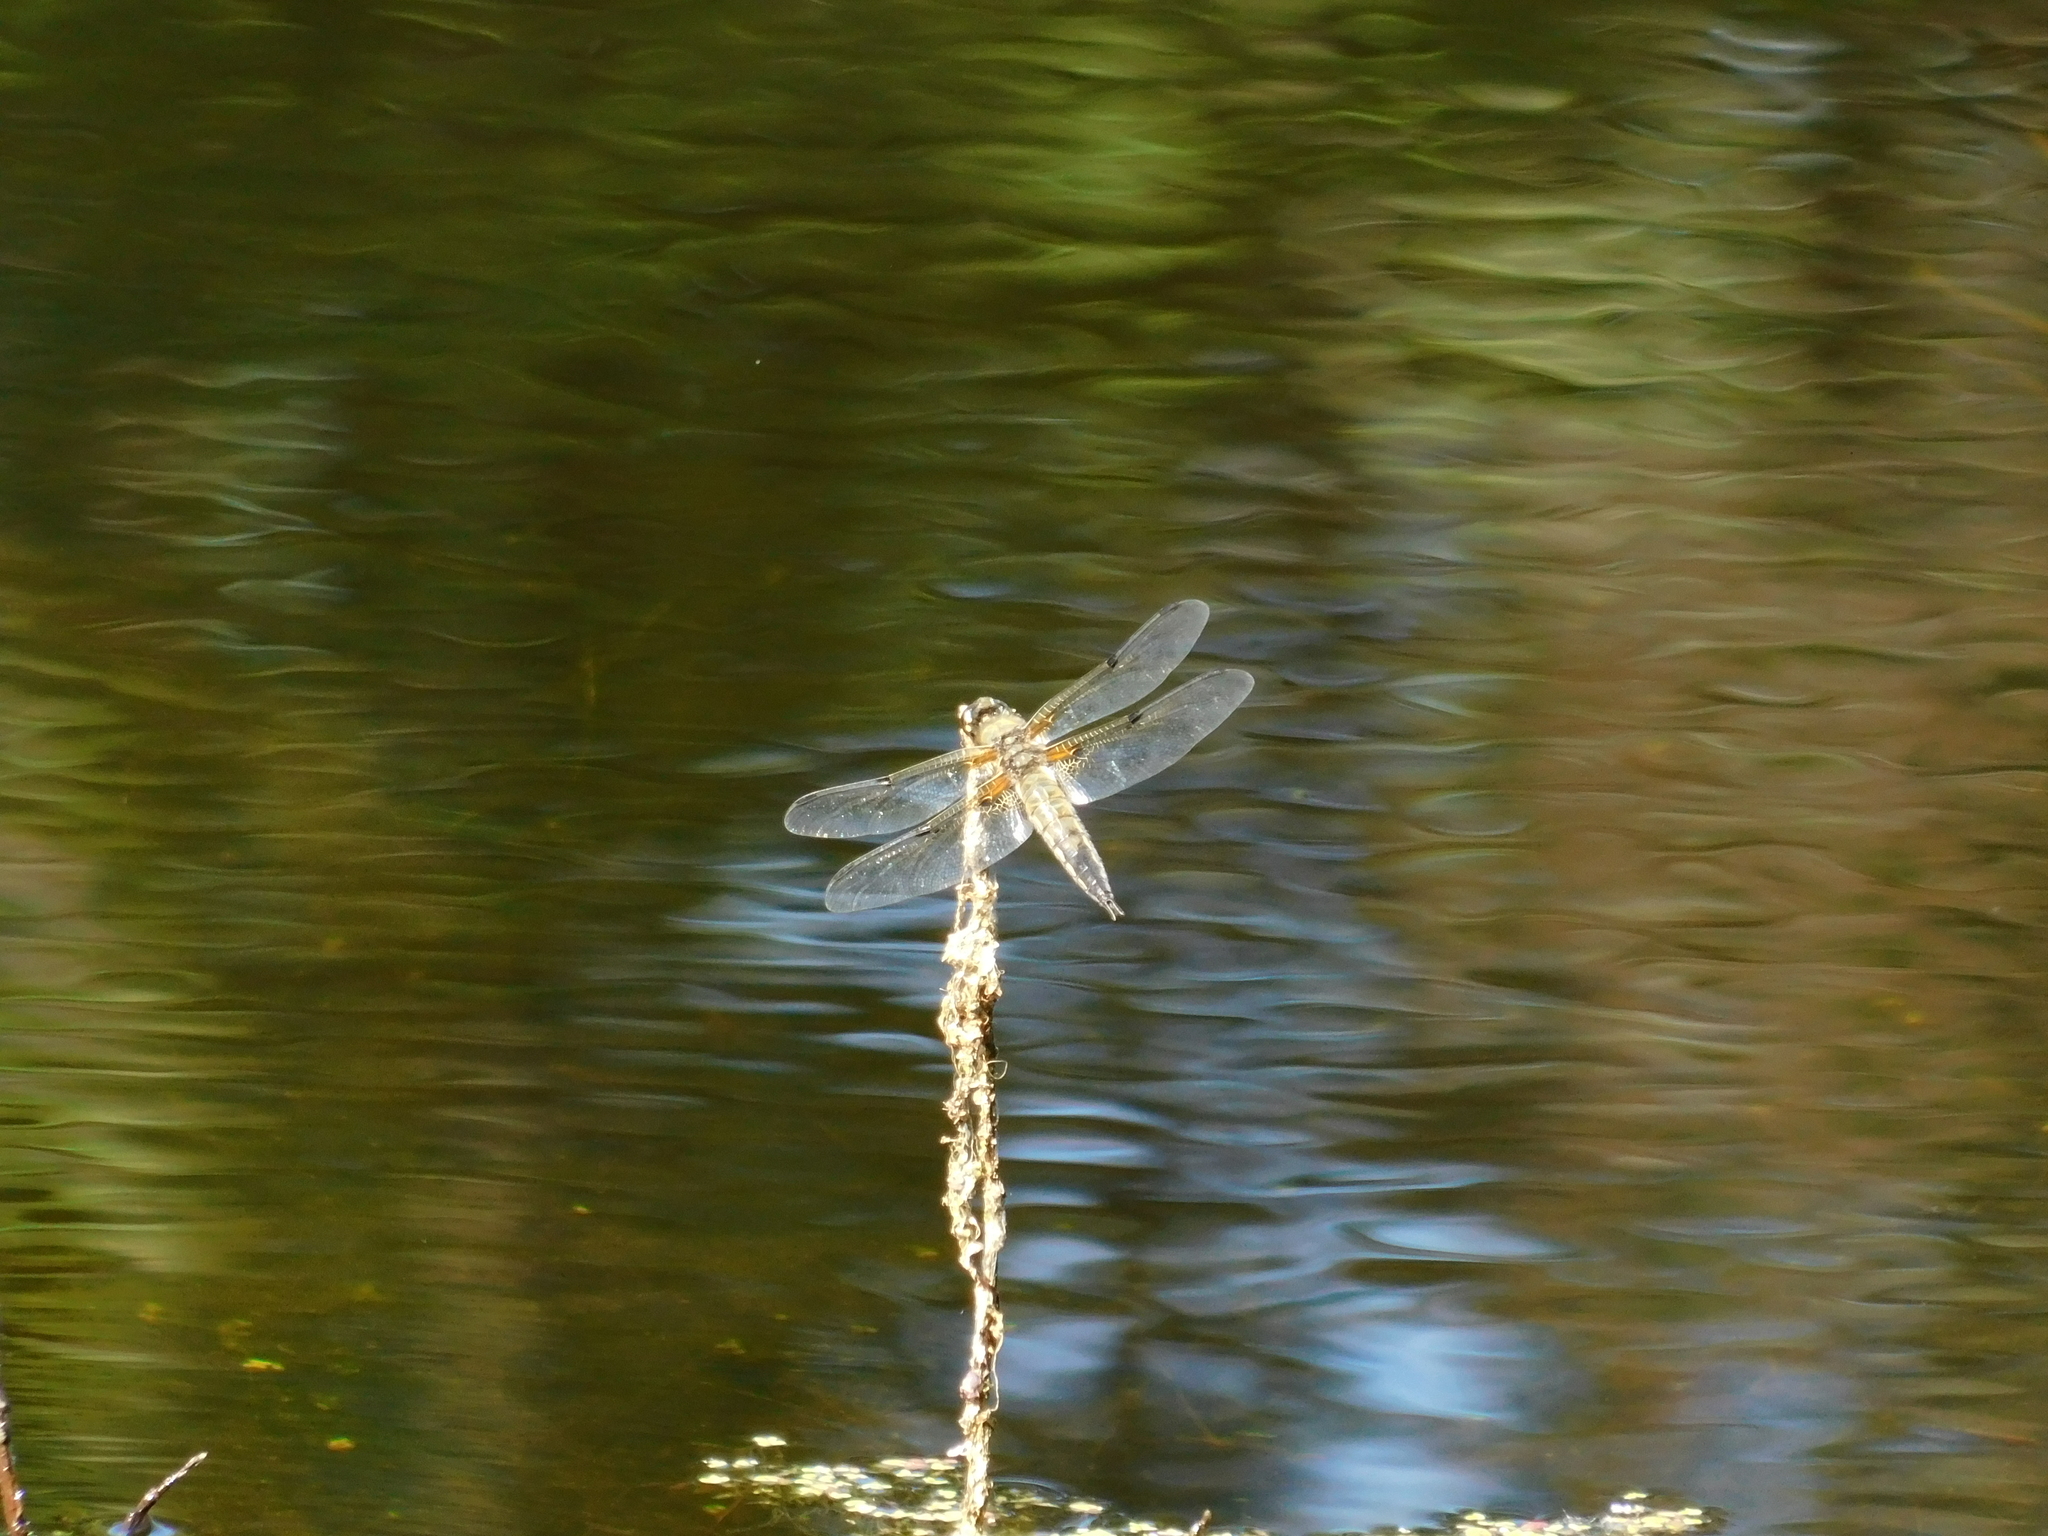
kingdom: Animalia
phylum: Arthropoda
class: Insecta
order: Odonata
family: Libellulidae
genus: Libellula
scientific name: Libellula quadrimaculata
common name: Four-spotted chaser
